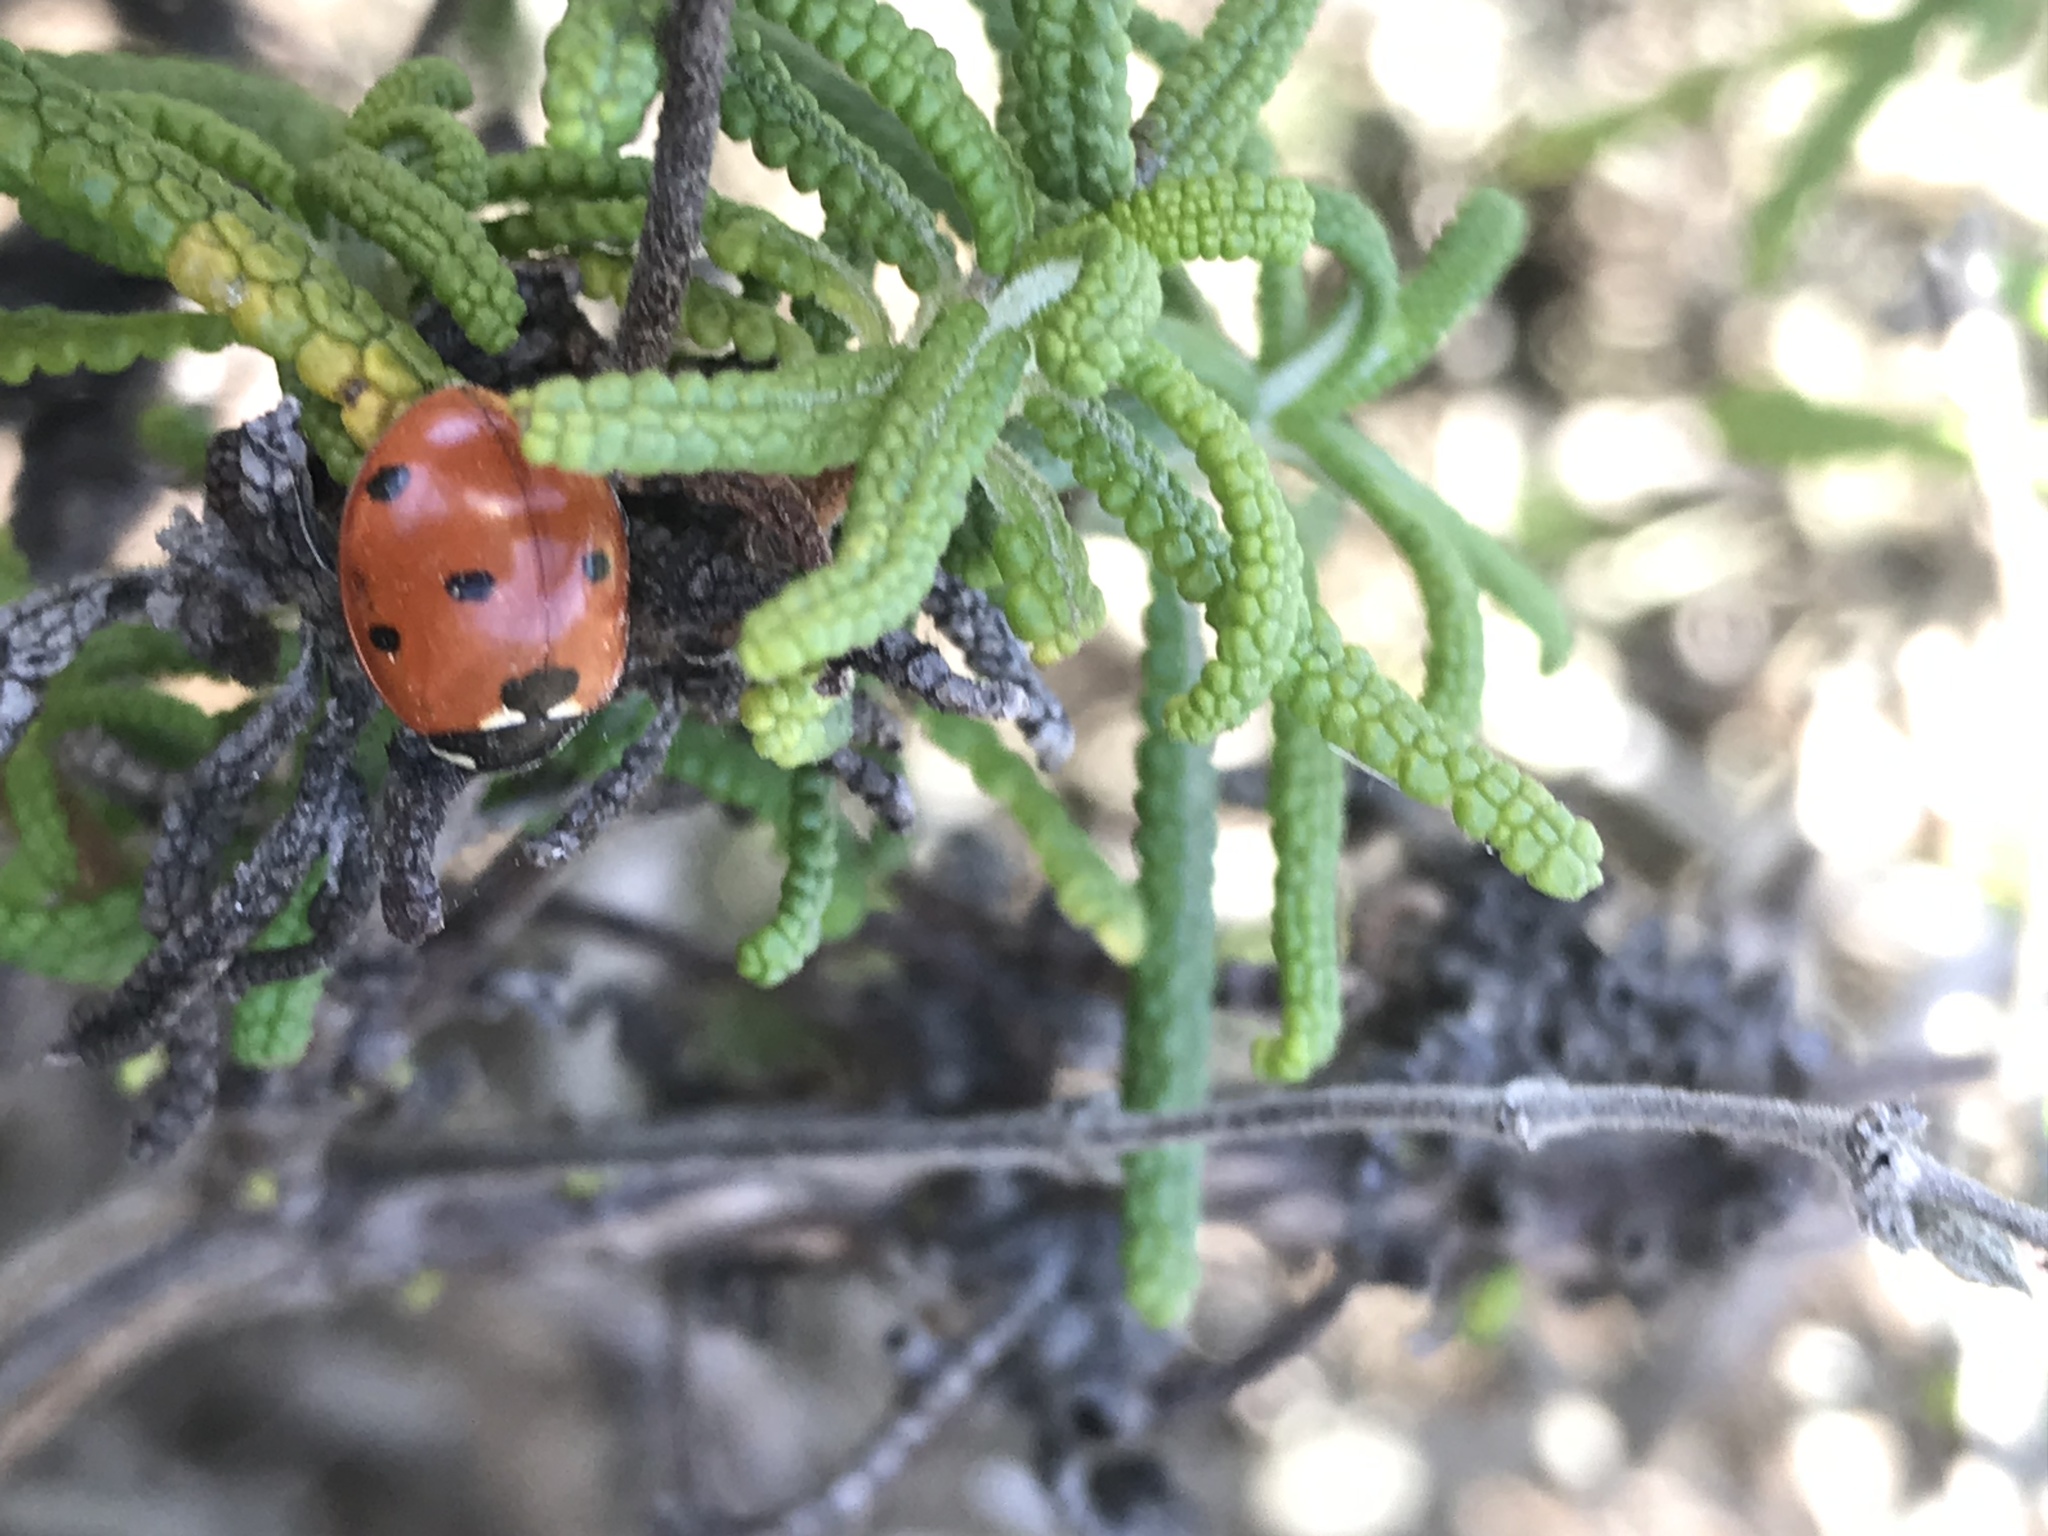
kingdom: Animalia
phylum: Arthropoda
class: Insecta
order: Coleoptera
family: Coccinellidae
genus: Coccinella
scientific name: Coccinella septempunctata
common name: Sevenspotted lady beetle
